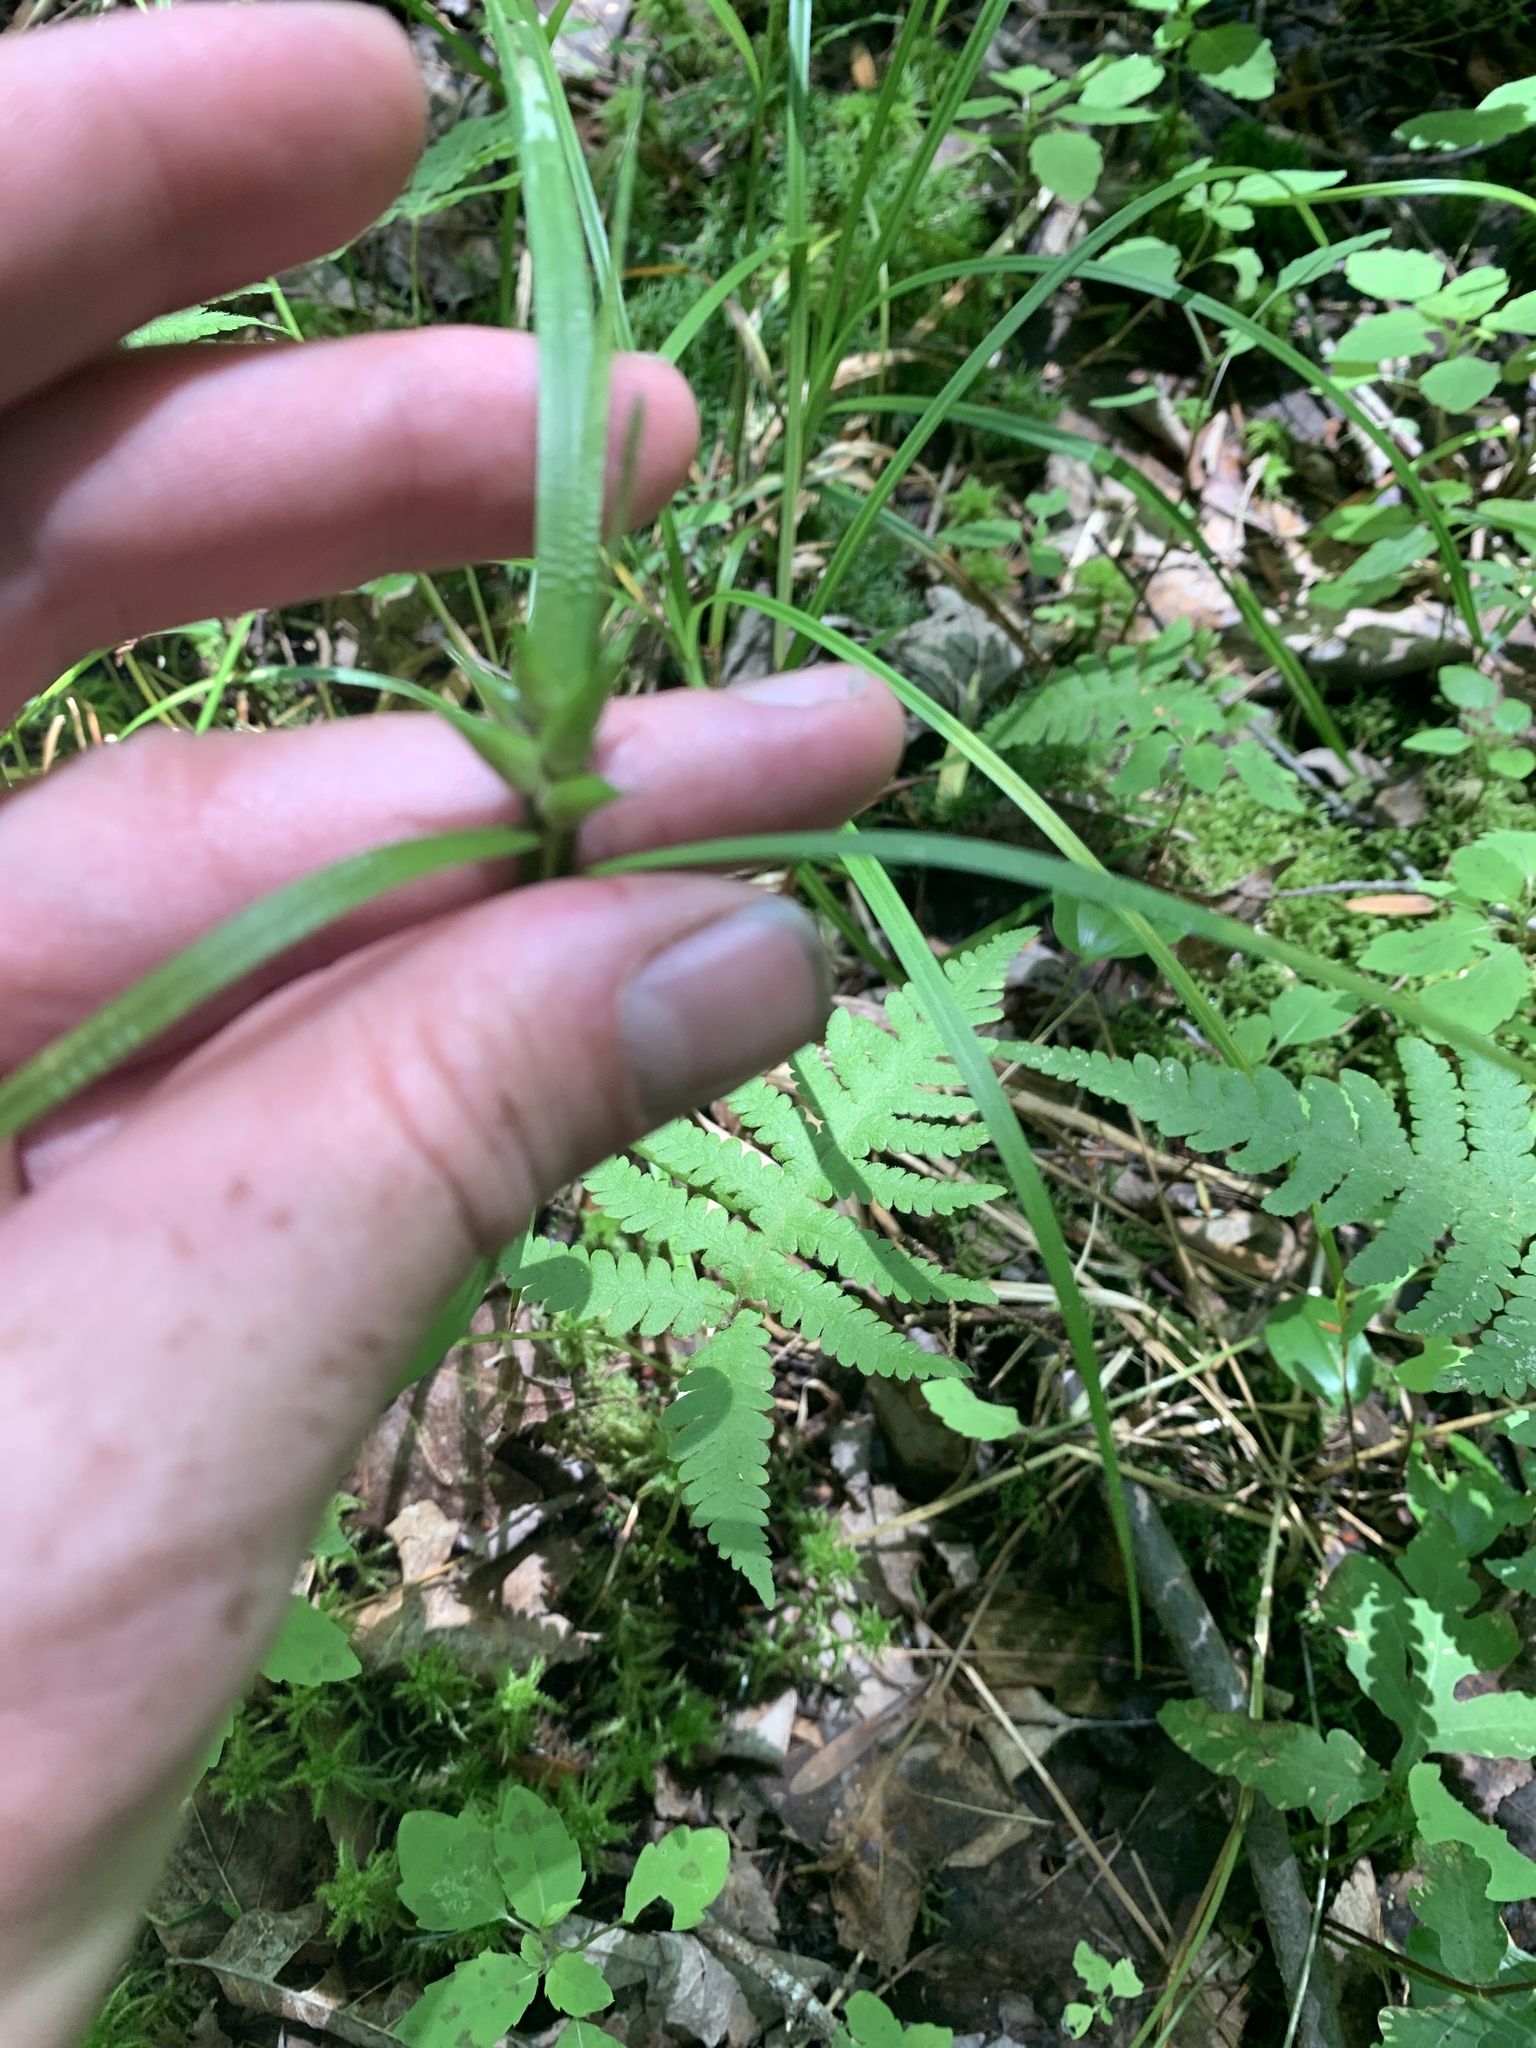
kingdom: Plantae
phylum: Tracheophyta
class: Liliopsida
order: Poales
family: Cyperaceae
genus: Carex
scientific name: Carex intumescens
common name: Greater bladder sedge
